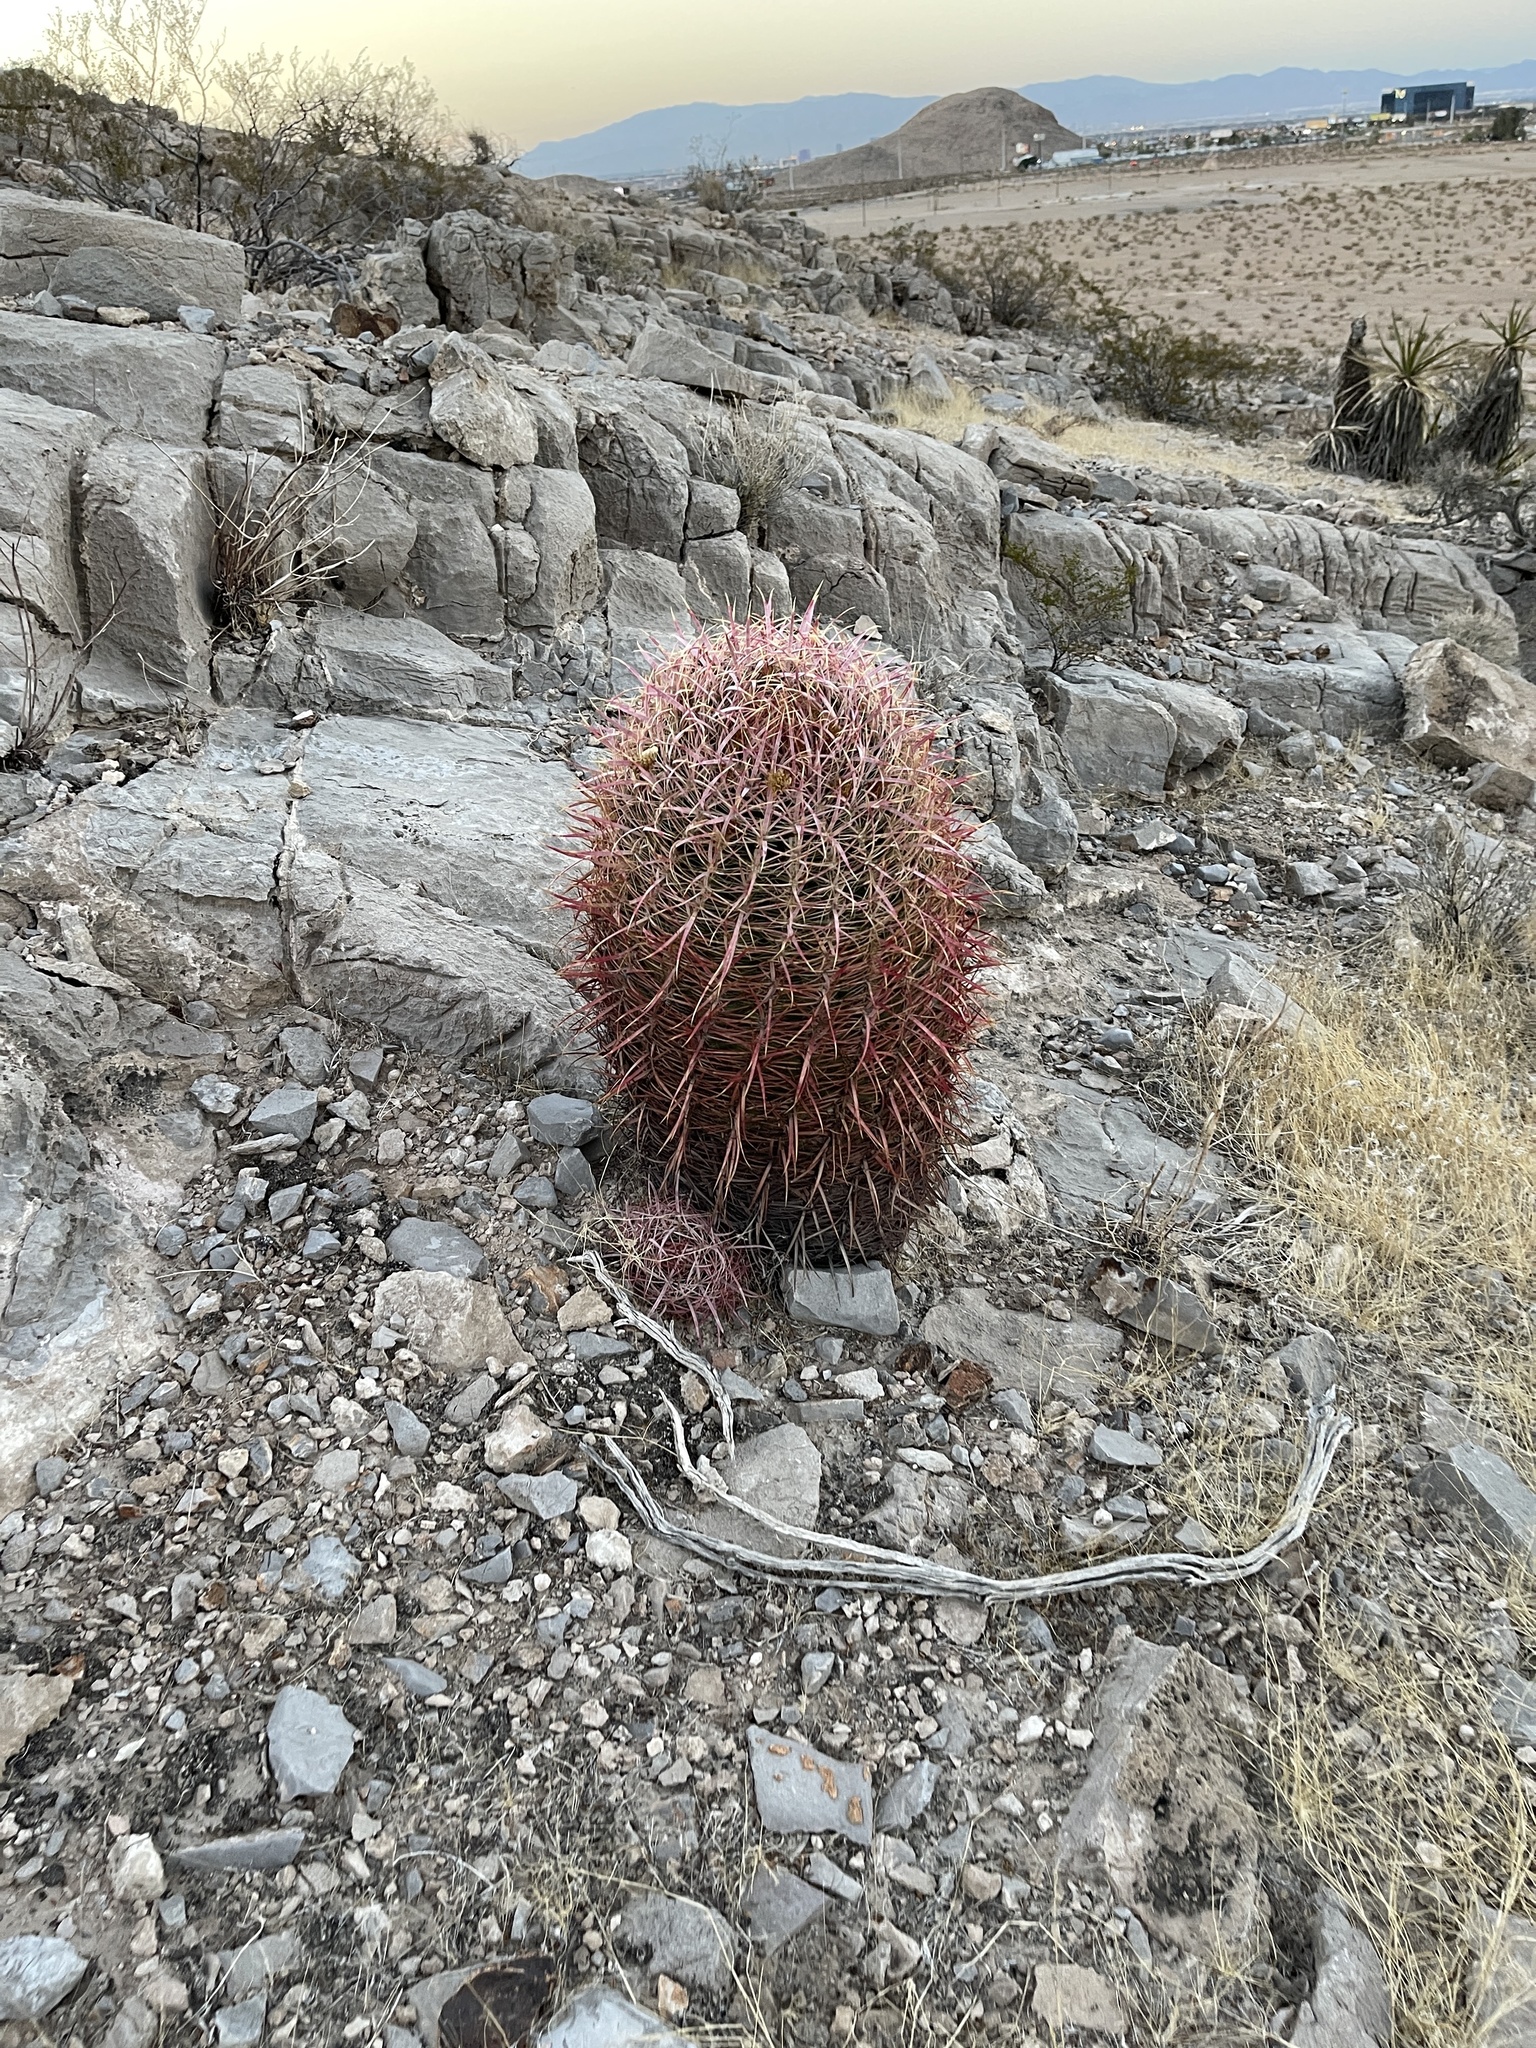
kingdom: Plantae
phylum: Tracheophyta
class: Magnoliopsida
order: Caryophyllales
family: Cactaceae
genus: Ferocactus
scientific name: Ferocactus cylindraceus
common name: California barrel cactus
